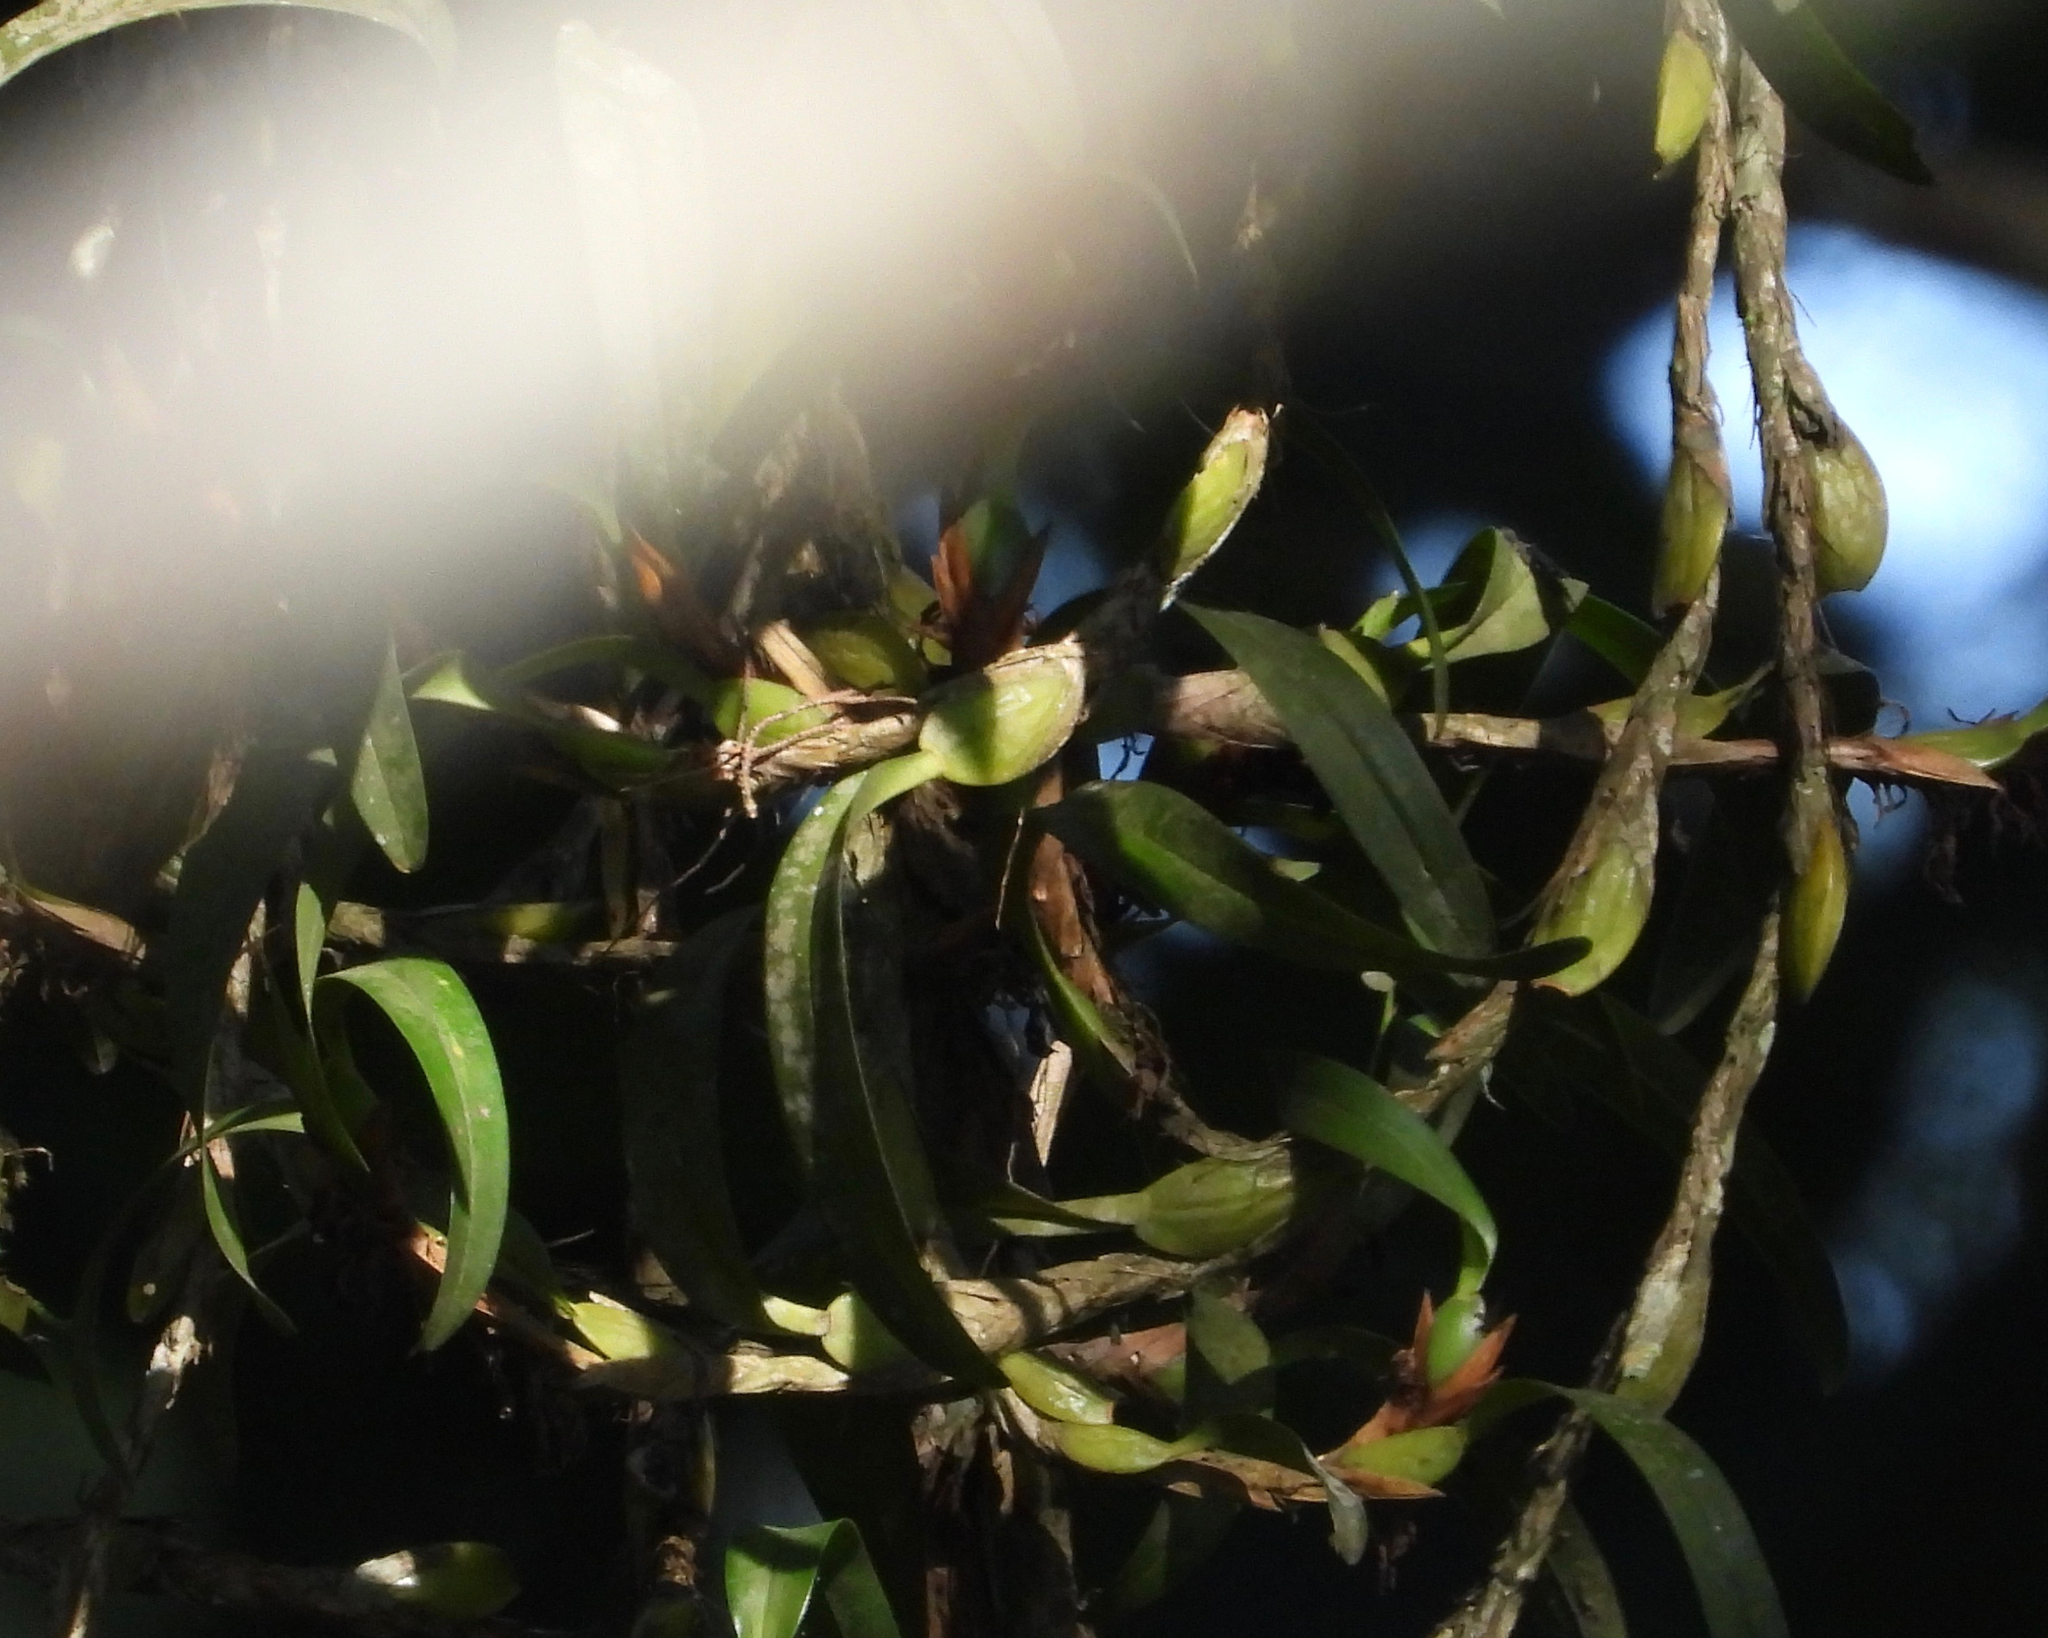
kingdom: Plantae
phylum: Tracheophyta
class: Liliopsida
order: Asparagales
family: Orchidaceae
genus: Maxillaria
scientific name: Maxillaria hagsateriana
